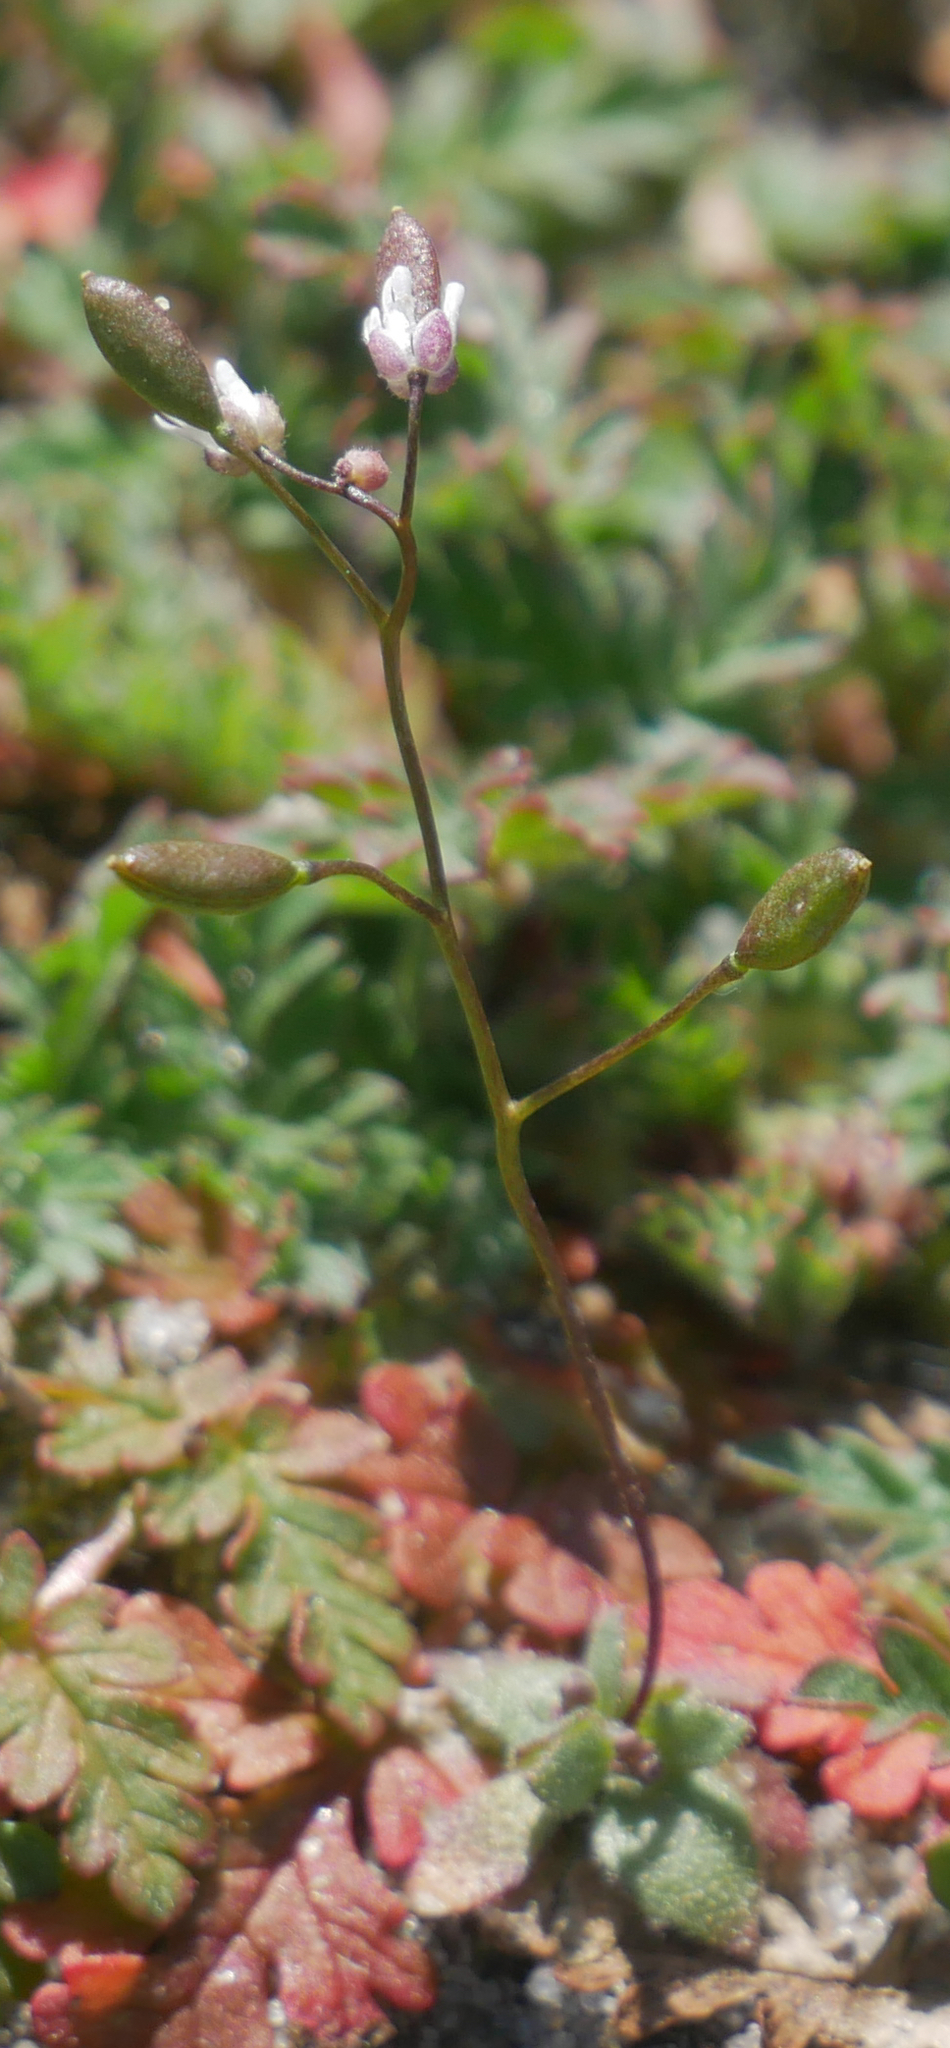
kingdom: Plantae
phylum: Tracheophyta
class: Magnoliopsida
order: Brassicales
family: Brassicaceae
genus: Draba
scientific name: Draba verna
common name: Spring draba
